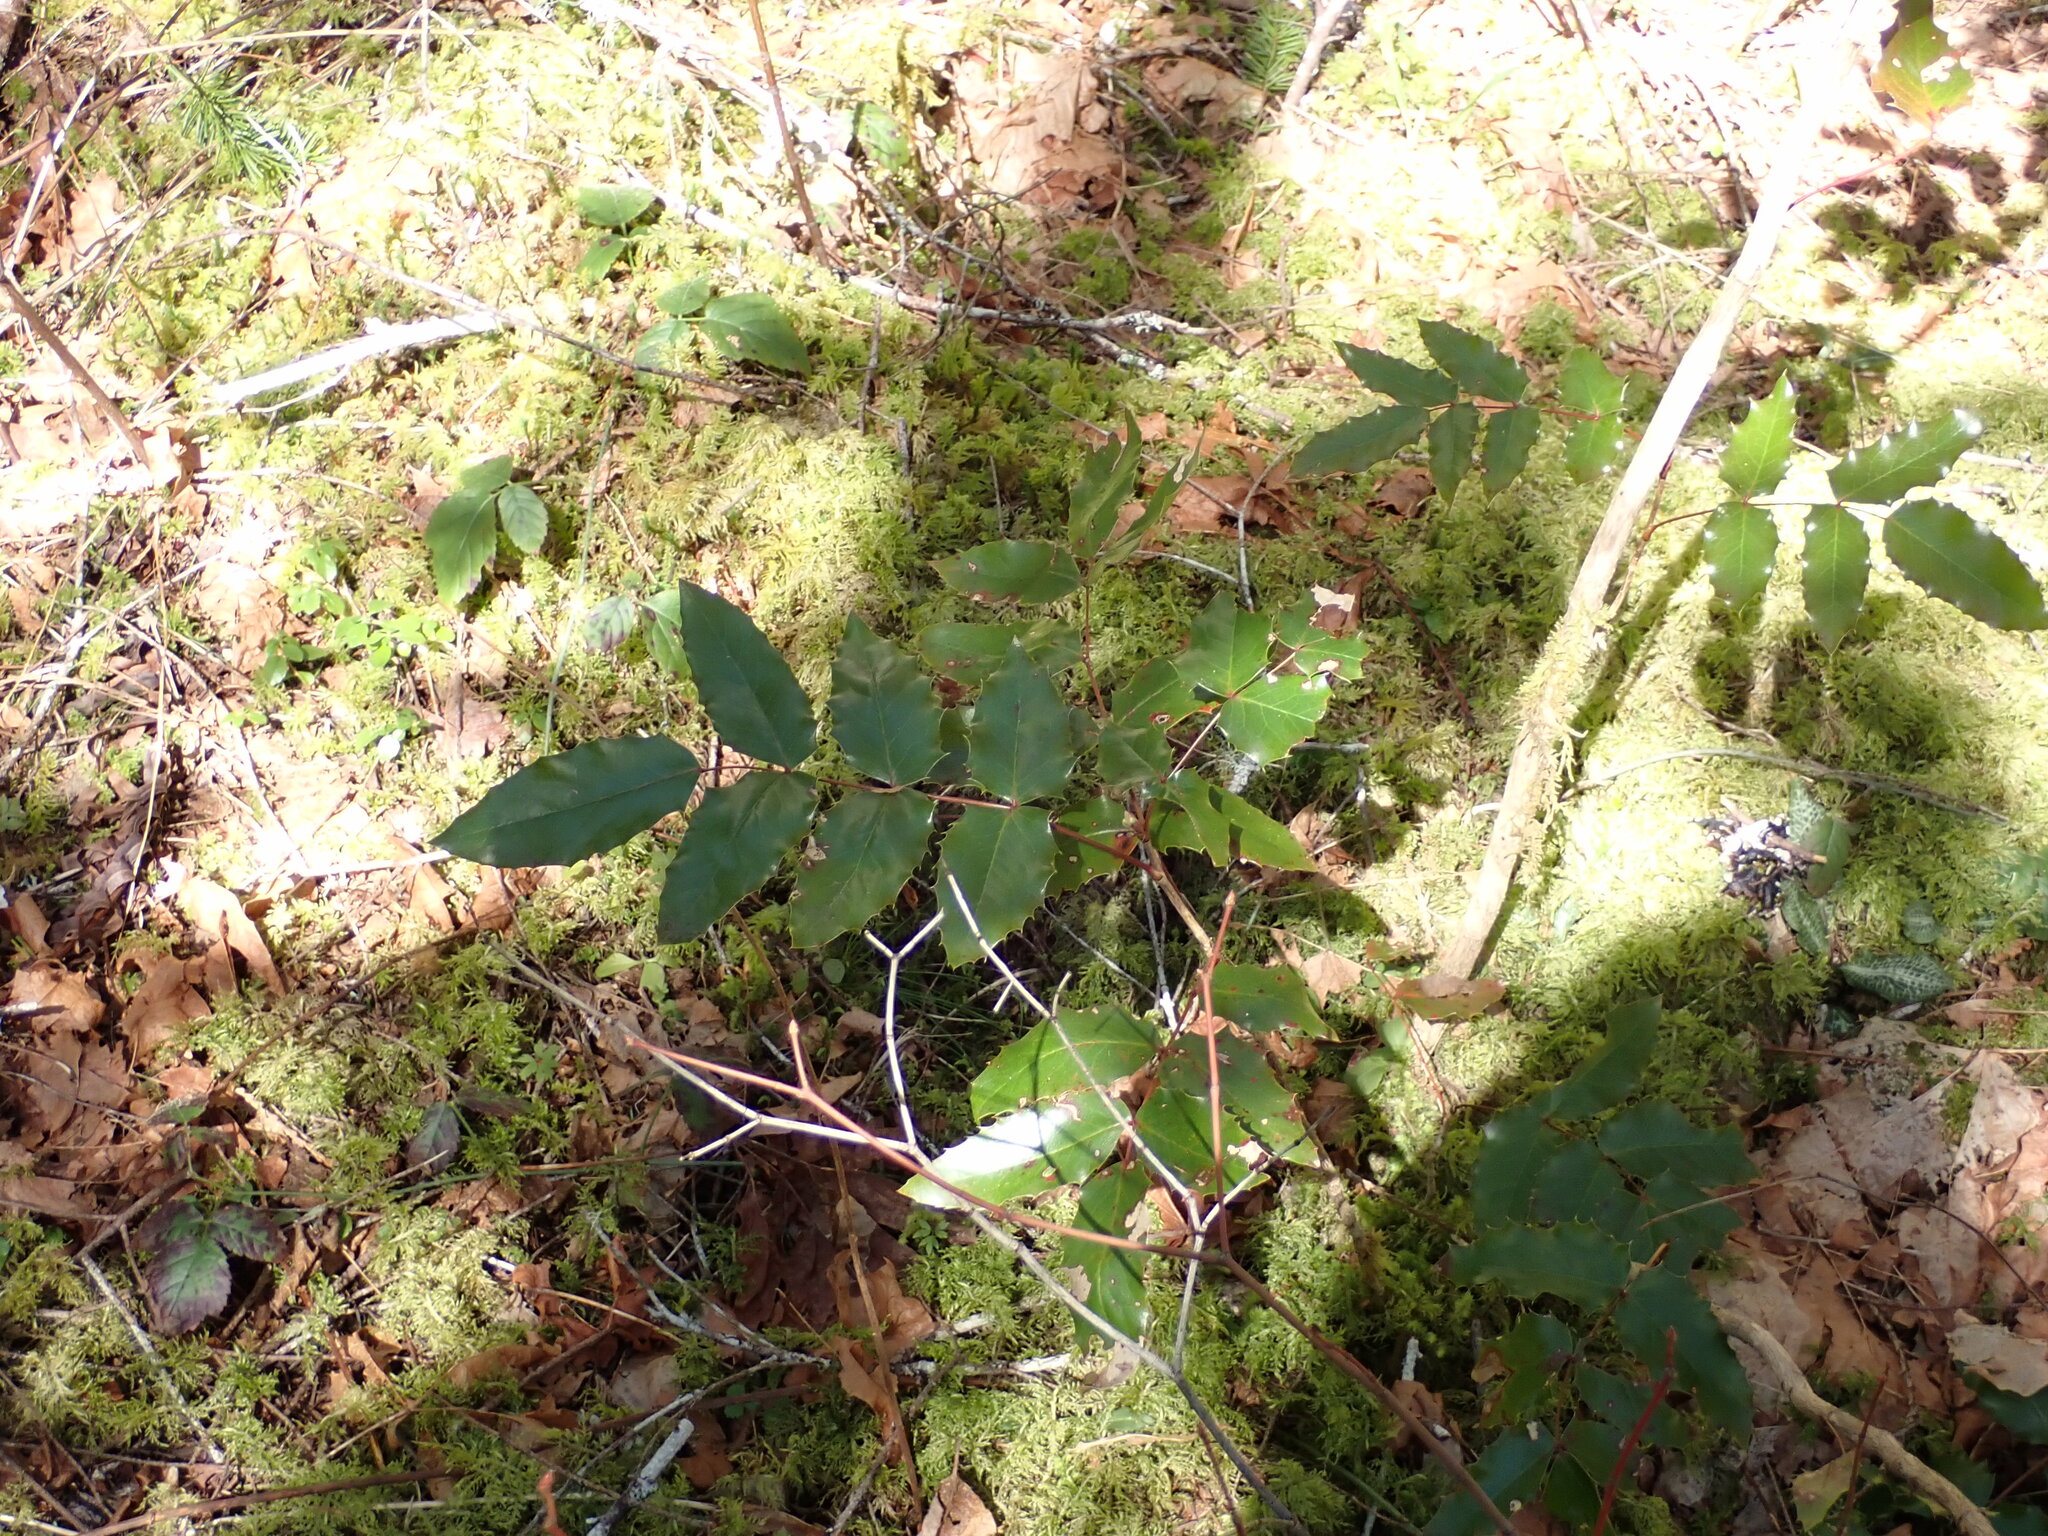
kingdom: Plantae
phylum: Tracheophyta
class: Magnoliopsida
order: Ranunculales
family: Berberidaceae
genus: Mahonia
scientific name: Mahonia aquifolium
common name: Oregon-grape
